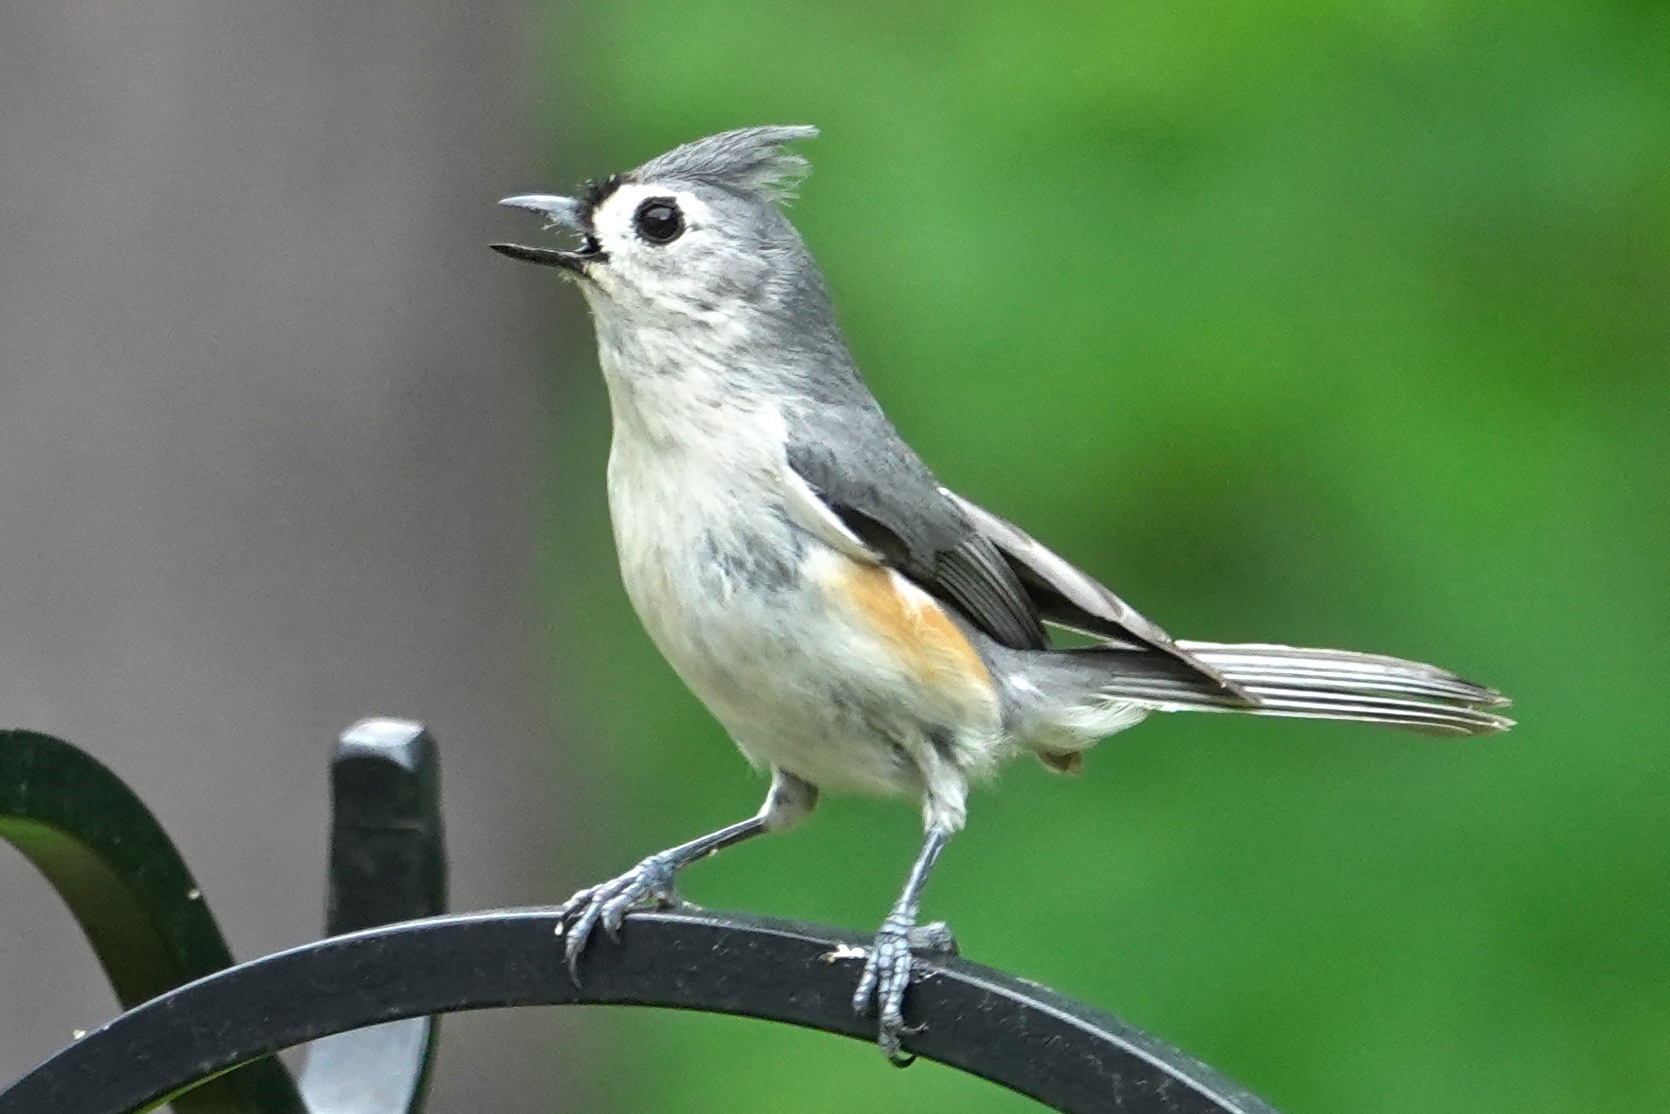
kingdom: Animalia
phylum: Chordata
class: Aves
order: Passeriformes
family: Paridae
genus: Baeolophus
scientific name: Baeolophus bicolor
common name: Tufted titmouse
